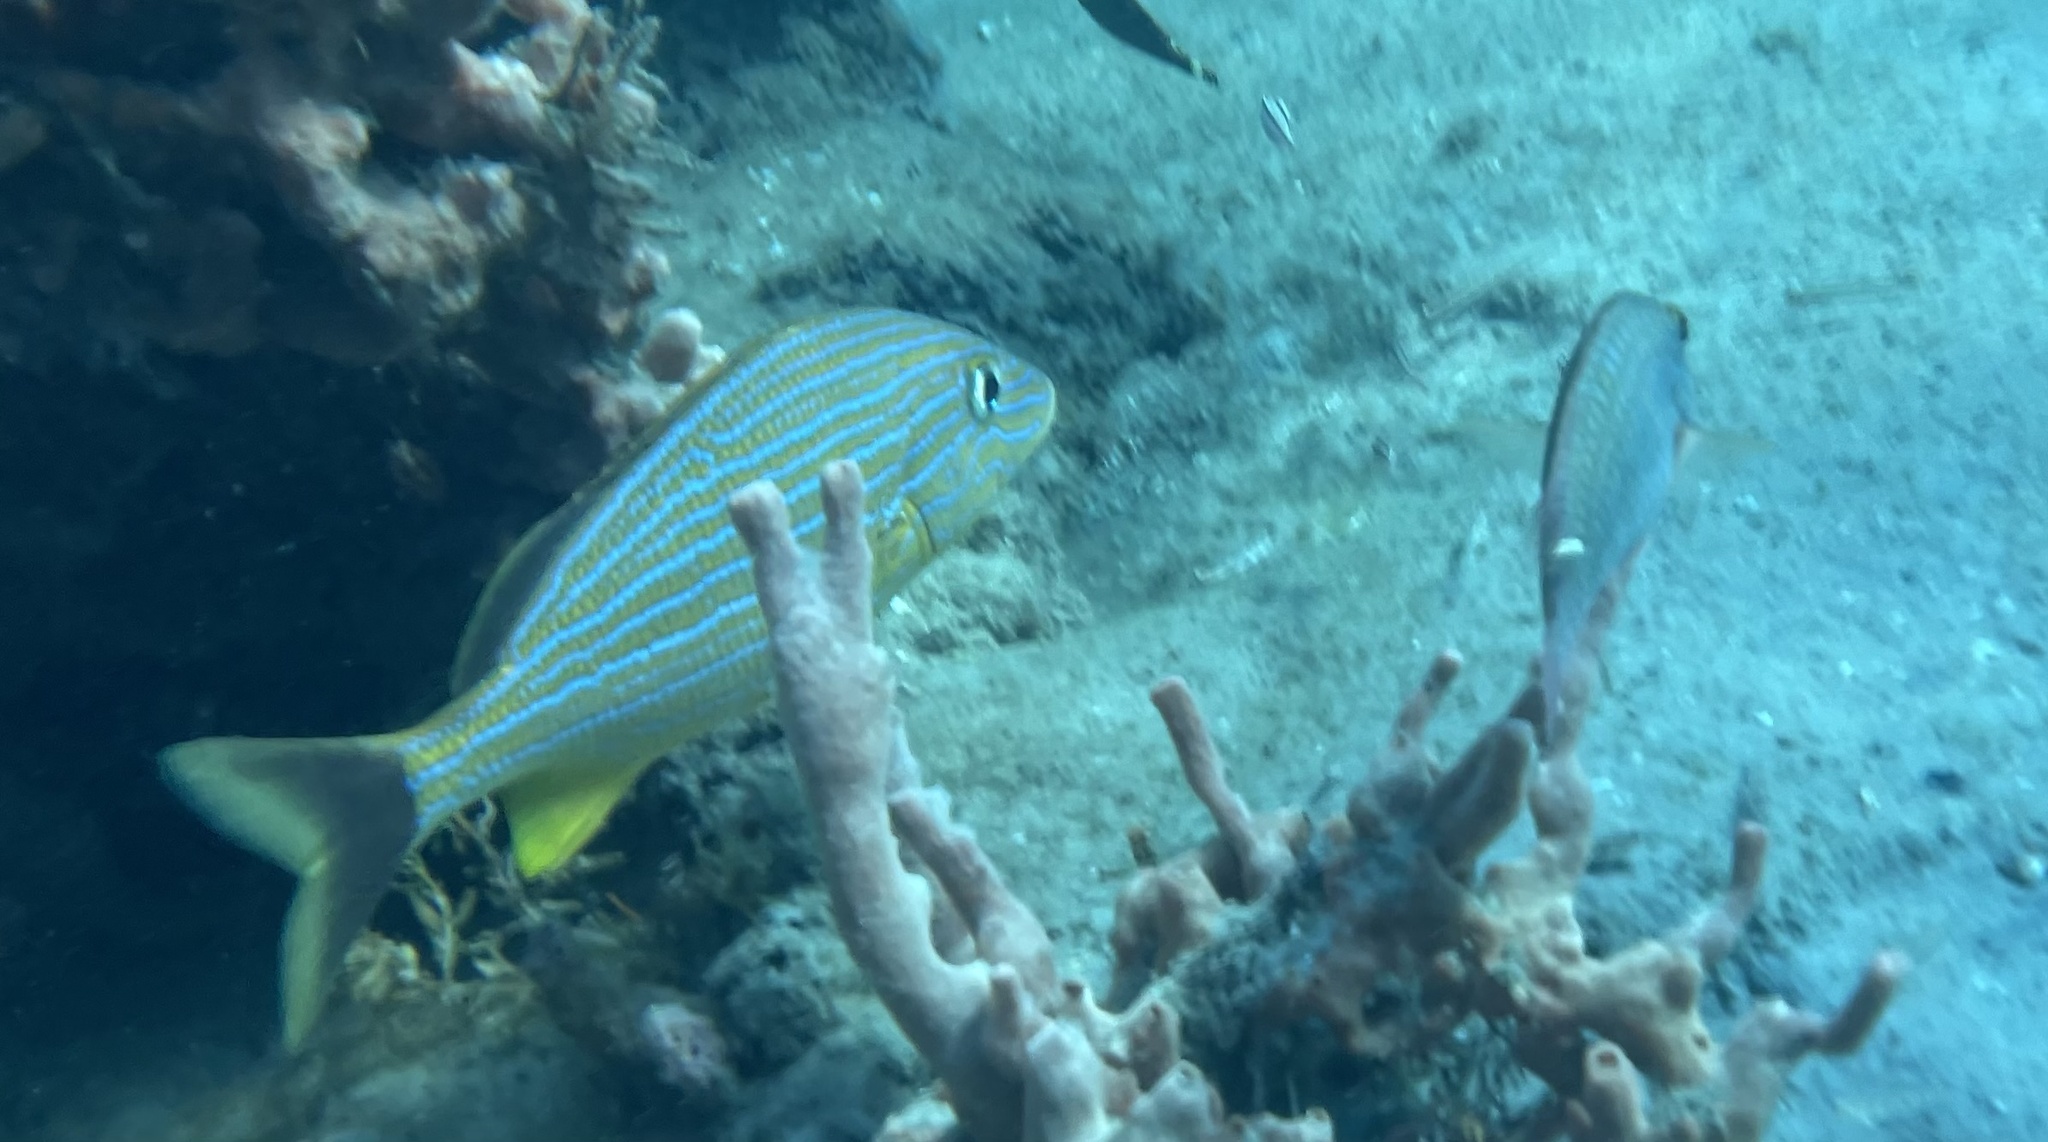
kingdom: Animalia
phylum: Chordata
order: Perciformes
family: Haemulidae
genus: Haemulon
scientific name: Haemulon sciurus
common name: Bluestriped grunt
